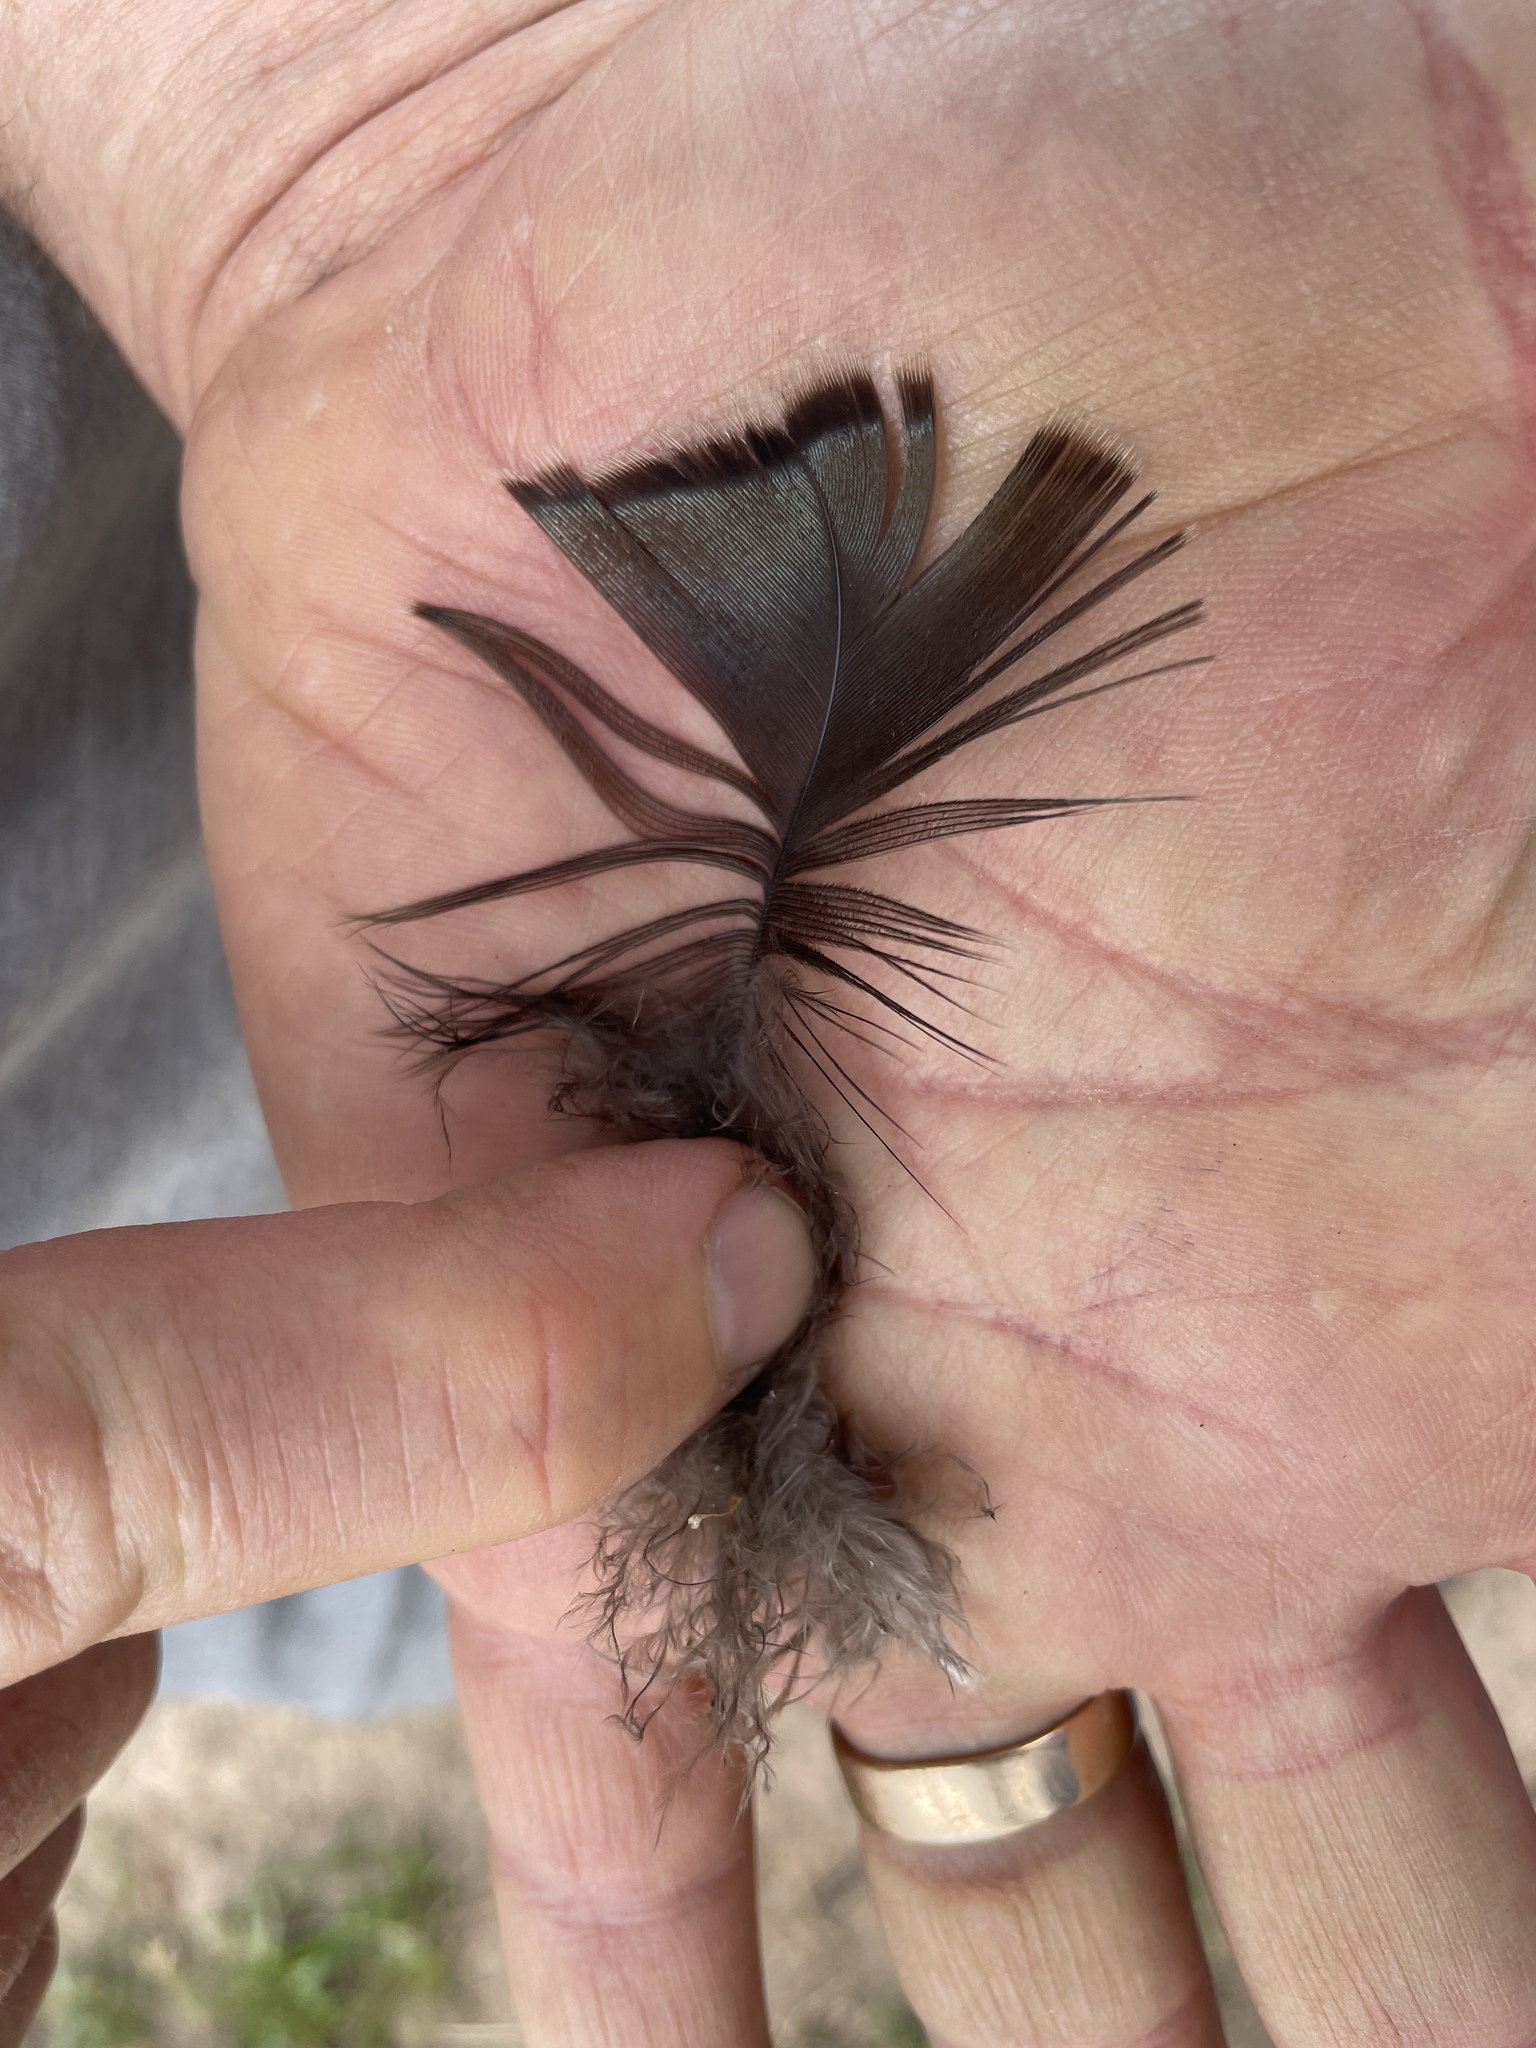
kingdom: Animalia
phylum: Chordata
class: Aves
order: Galliformes
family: Phasianidae
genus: Meleagris
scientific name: Meleagris gallopavo
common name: Wild turkey
